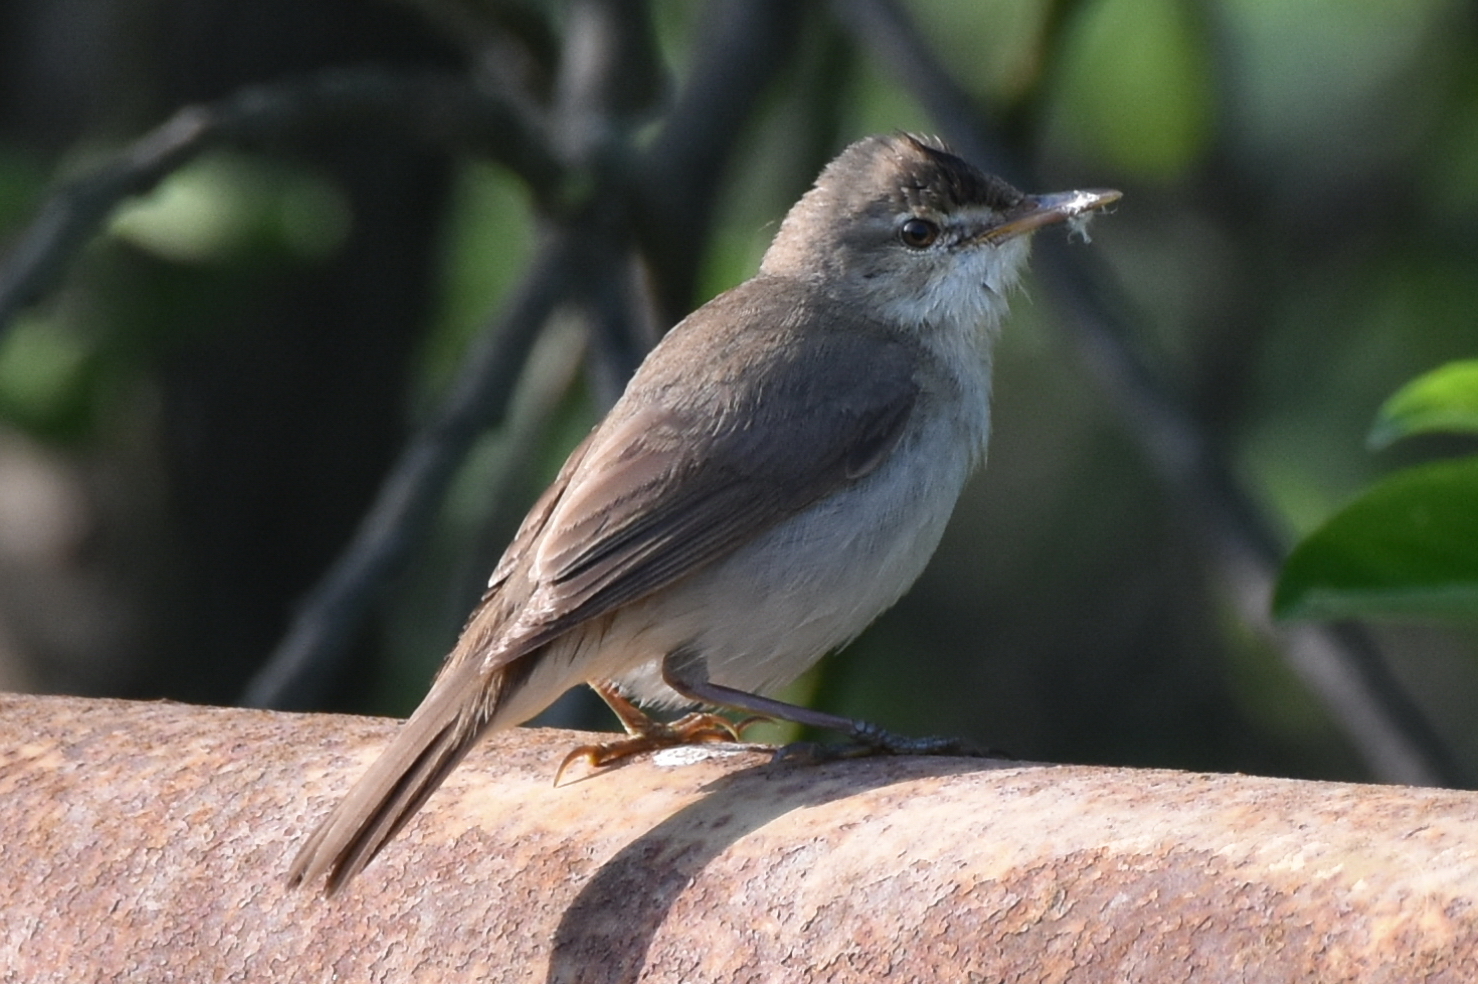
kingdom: Animalia
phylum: Chordata
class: Aves
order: Passeriformes
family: Acrocephalidae
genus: Acrocephalus
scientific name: Acrocephalus dumetorum
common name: Blyth's reed warbler
